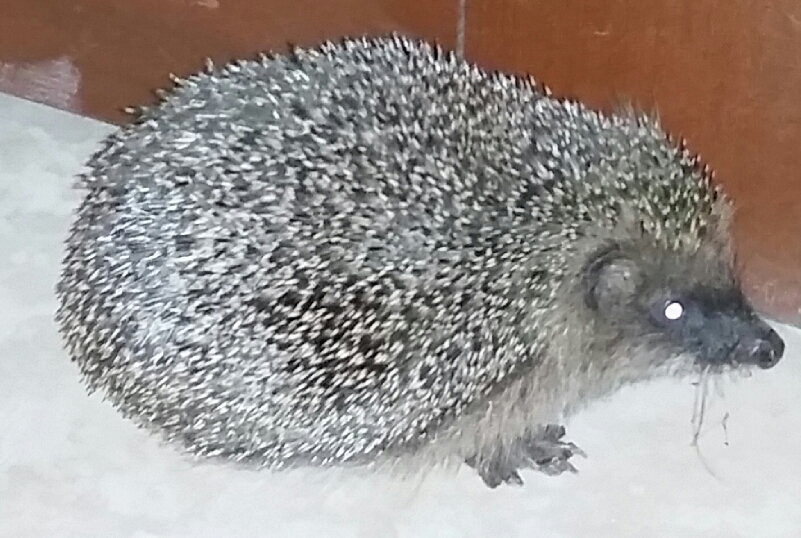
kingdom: Animalia
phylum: Chordata
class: Mammalia
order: Erinaceomorpha
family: Erinaceidae
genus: Erinaceus
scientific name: Erinaceus europaeus
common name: West european hedgehog
